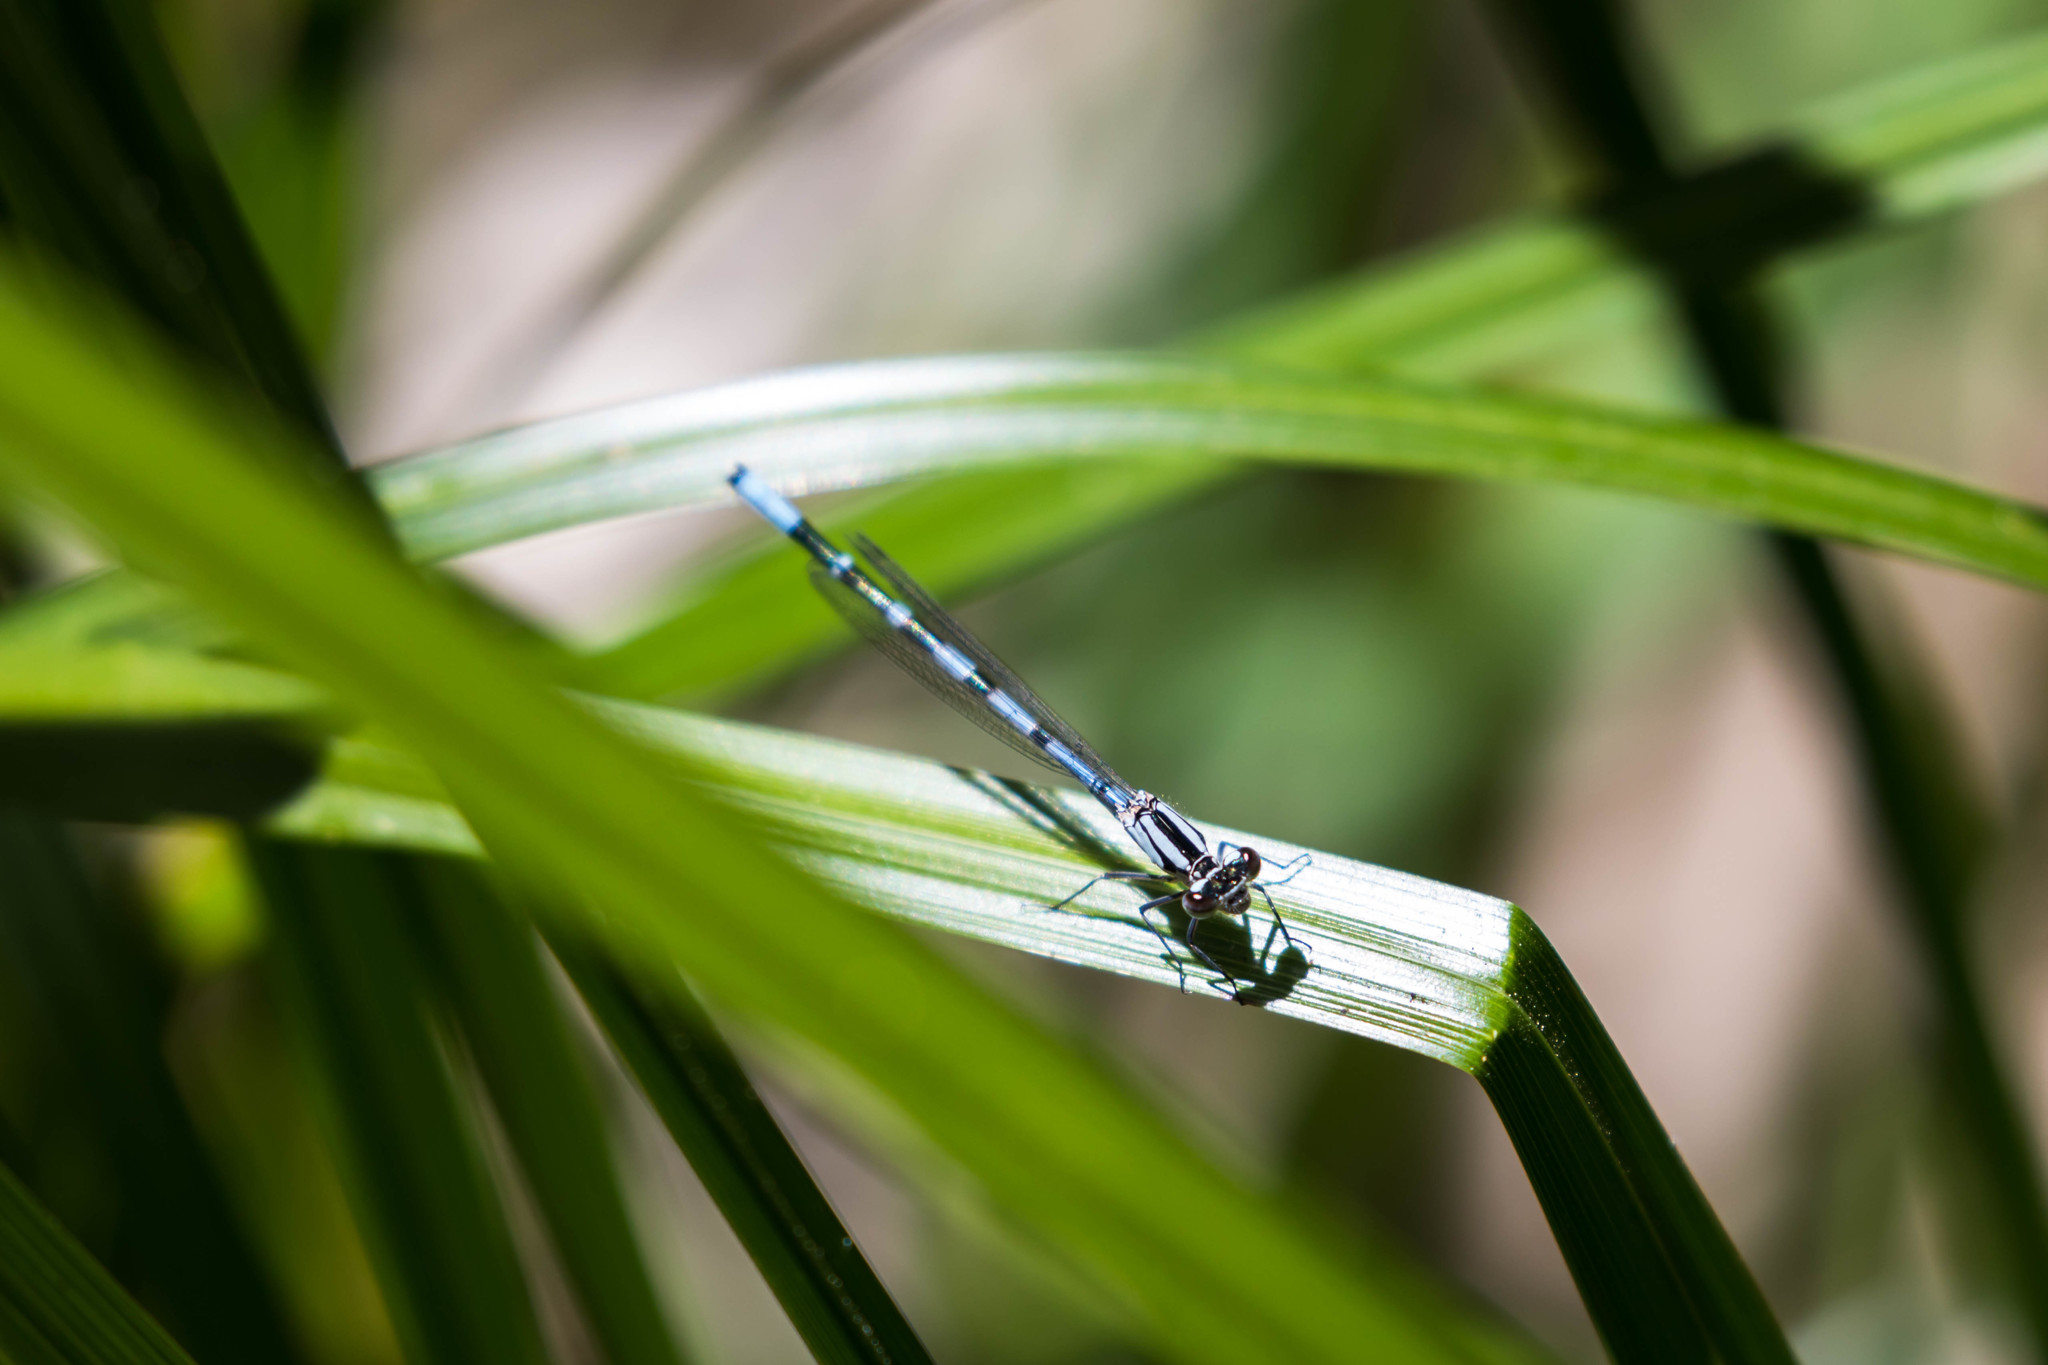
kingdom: Animalia
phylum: Arthropoda
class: Insecta
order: Odonata
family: Coenagrionidae
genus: Enallagma
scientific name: Enallagma annexum
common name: Northern bluet
